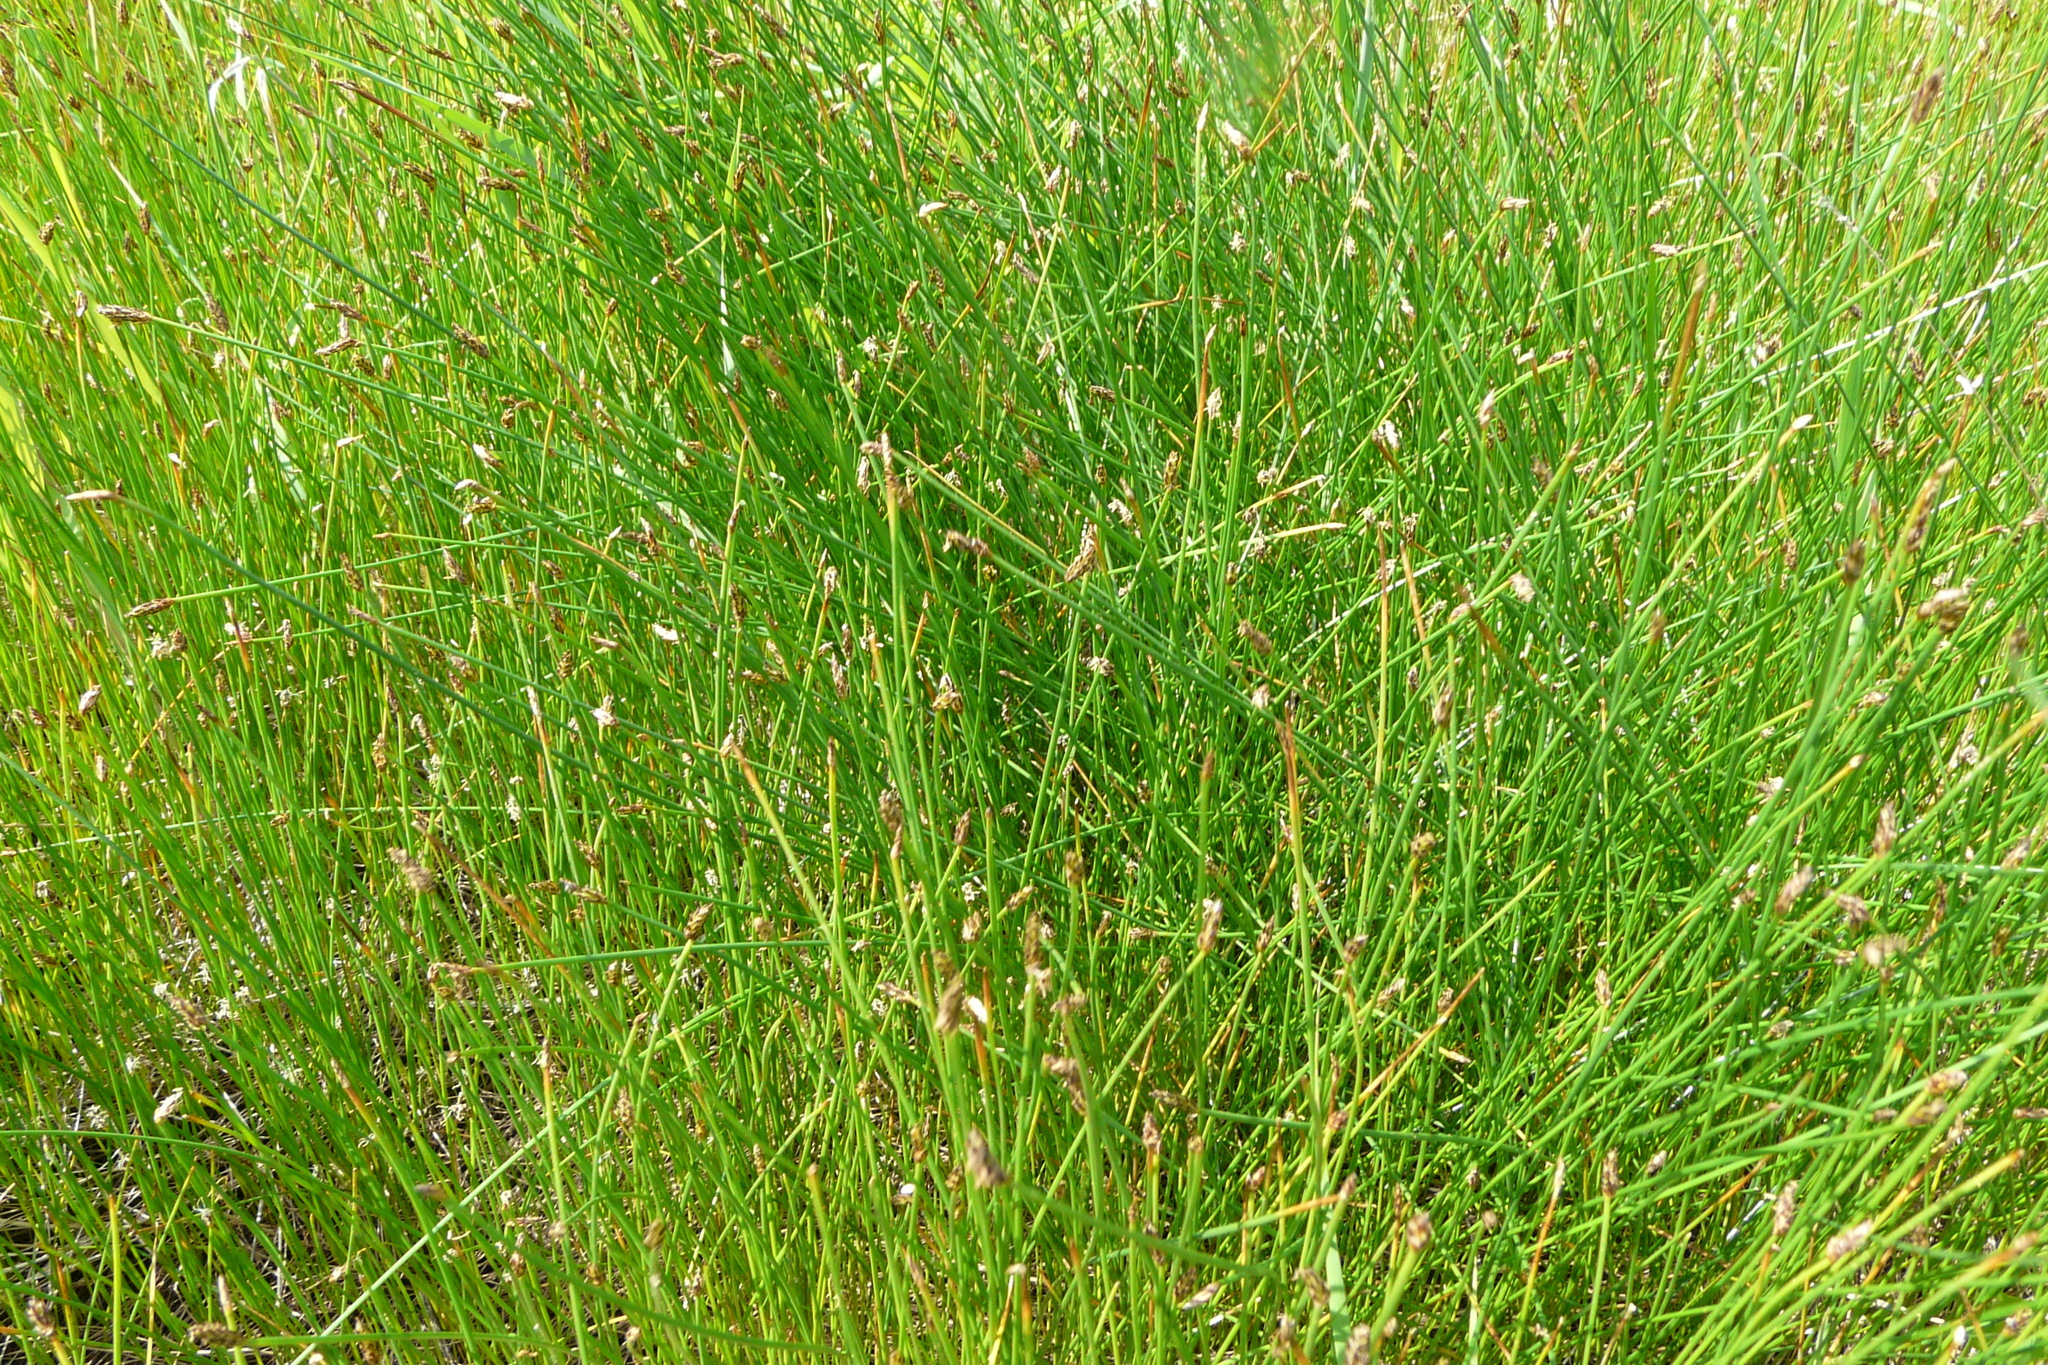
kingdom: Plantae
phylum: Tracheophyta
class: Liliopsida
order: Poales
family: Cyperaceae
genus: Eleocharis
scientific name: Eleocharis palustris
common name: Common spike-rush
